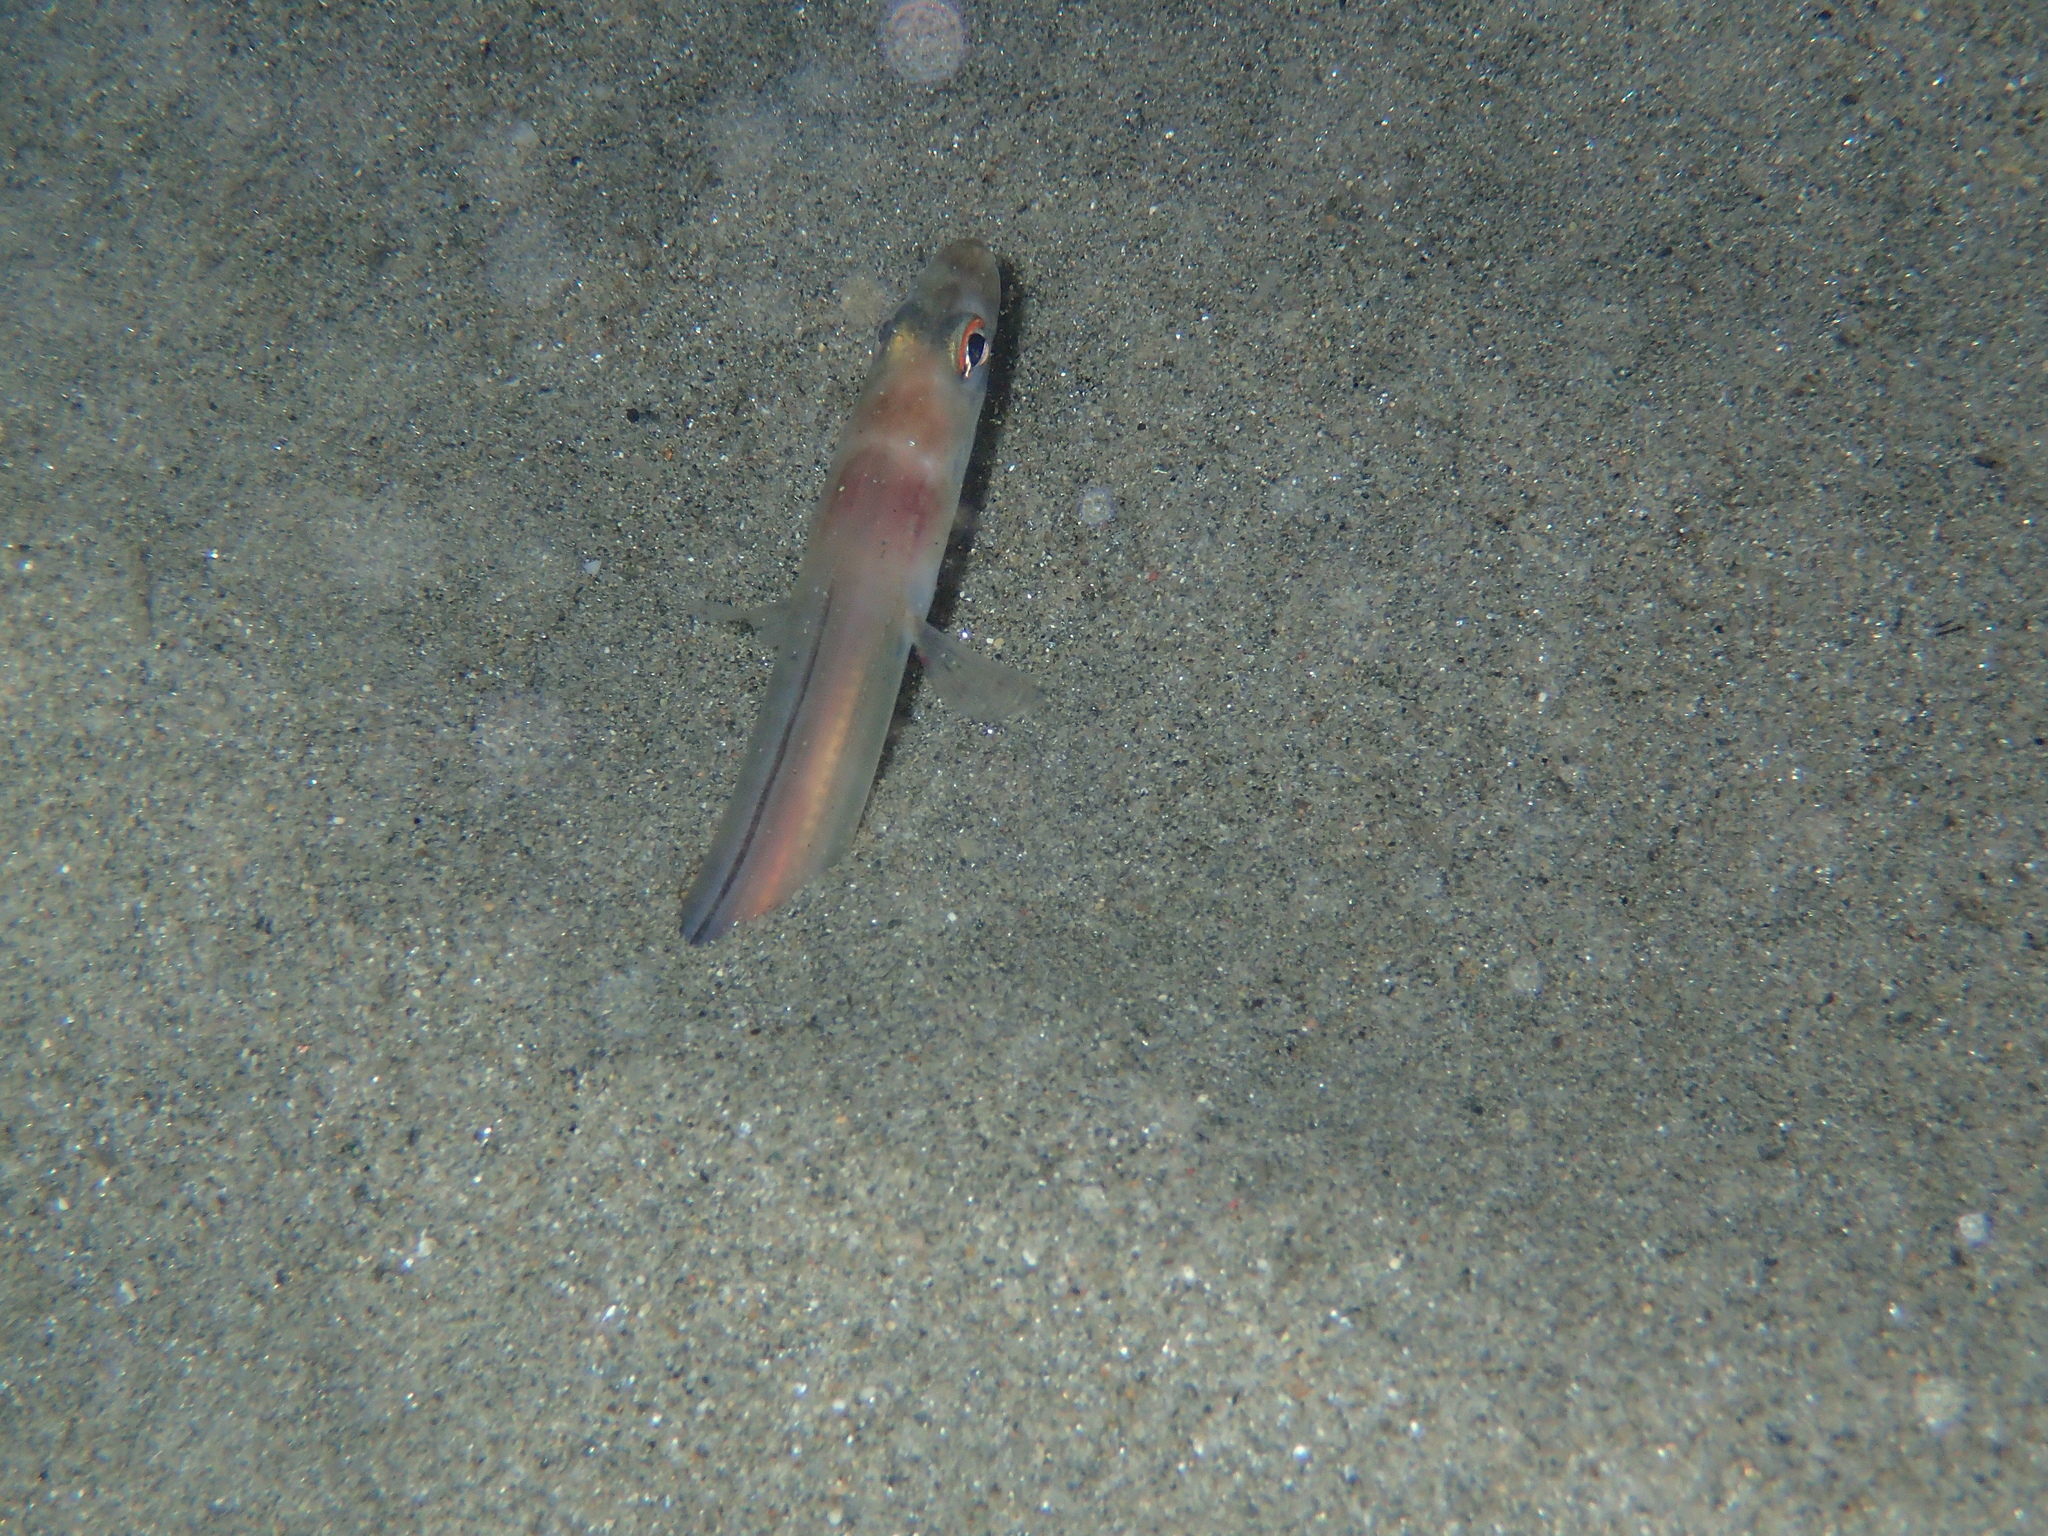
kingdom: Animalia
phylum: Chordata
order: Anguilliformes
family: Congridae
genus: Ariosoma
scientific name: Ariosoma balearicum
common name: Bandtooth conger
